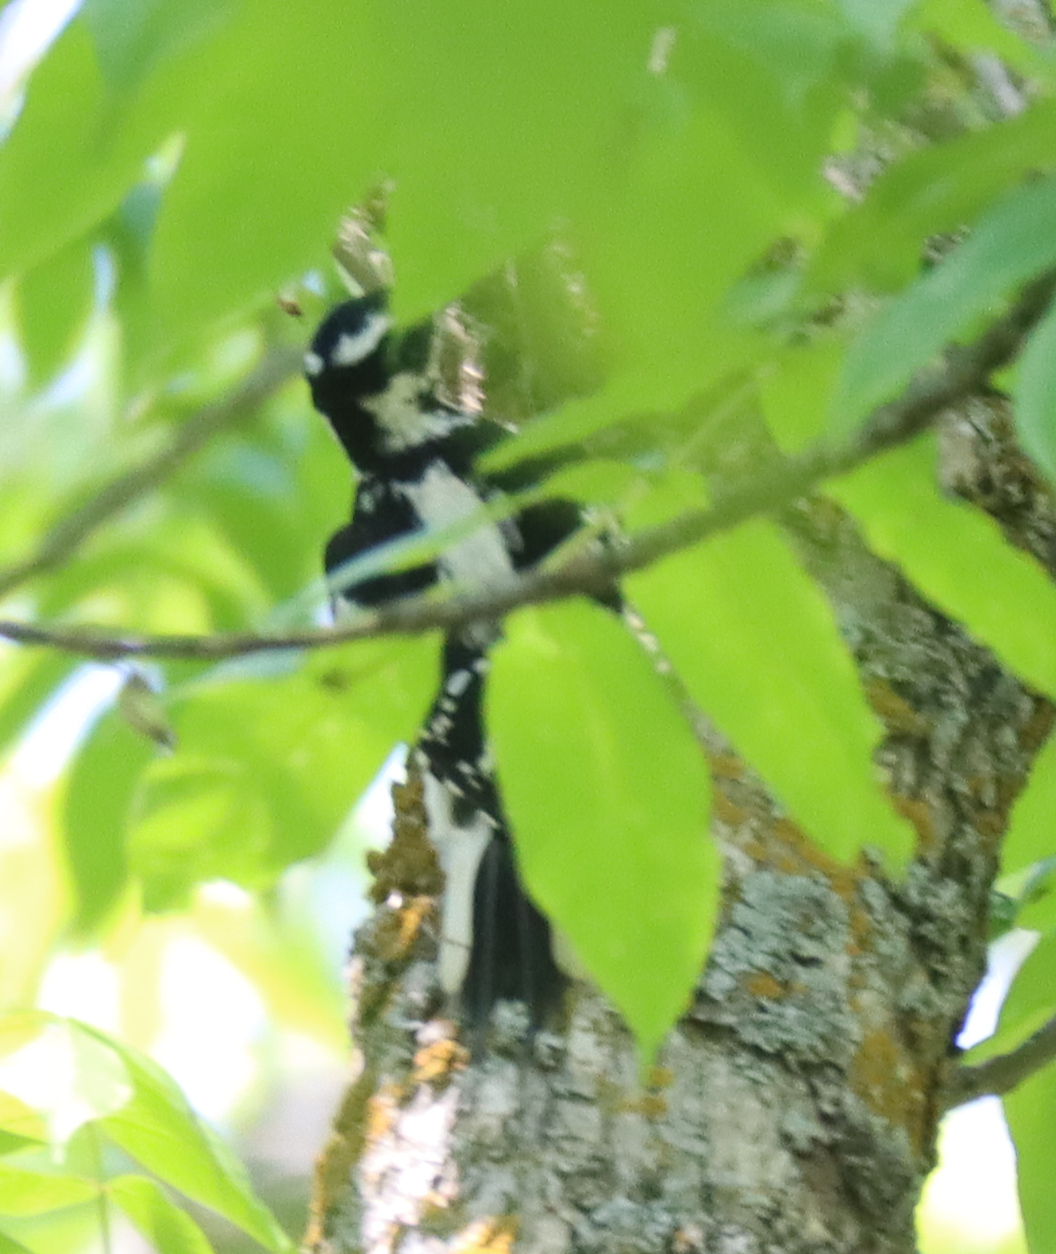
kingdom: Animalia
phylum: Chordata
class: Aves
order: Piciformes
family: Picidae
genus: Leuconotopicus
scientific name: Leuconotopicus villosus
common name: Hairy woodpecker
